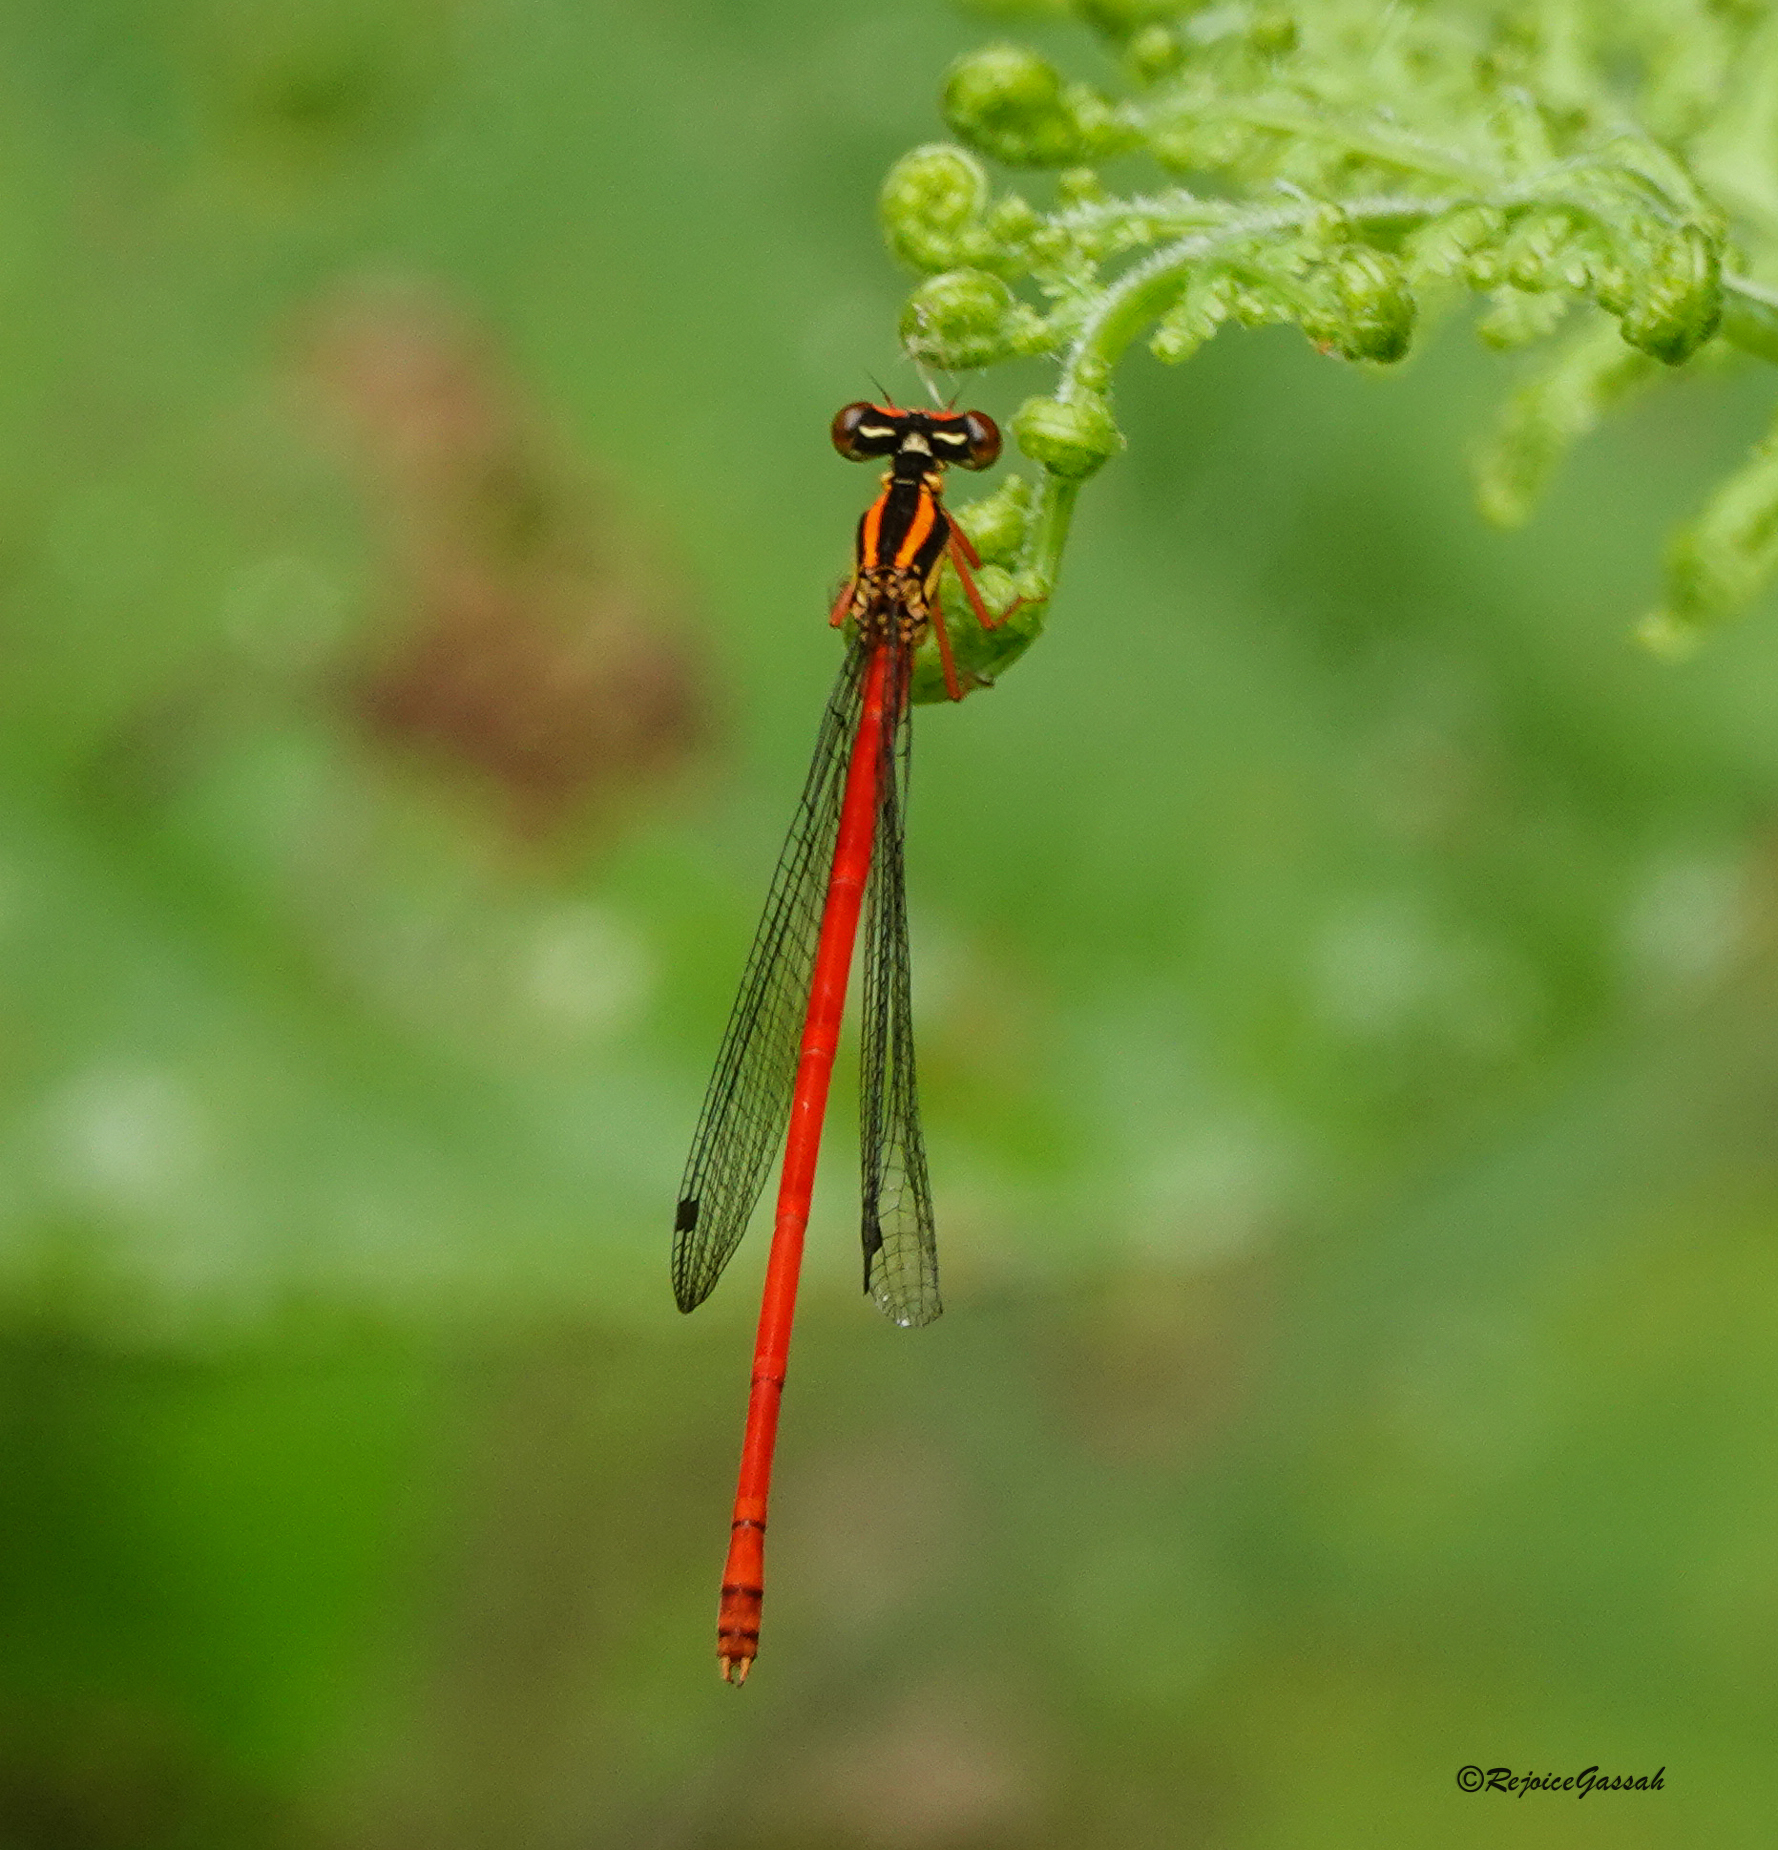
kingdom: Animalia
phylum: Arthropoda
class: Insecta
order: Odonata
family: Platycnemididae
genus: Calicnemia
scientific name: Calicnemia eximia
